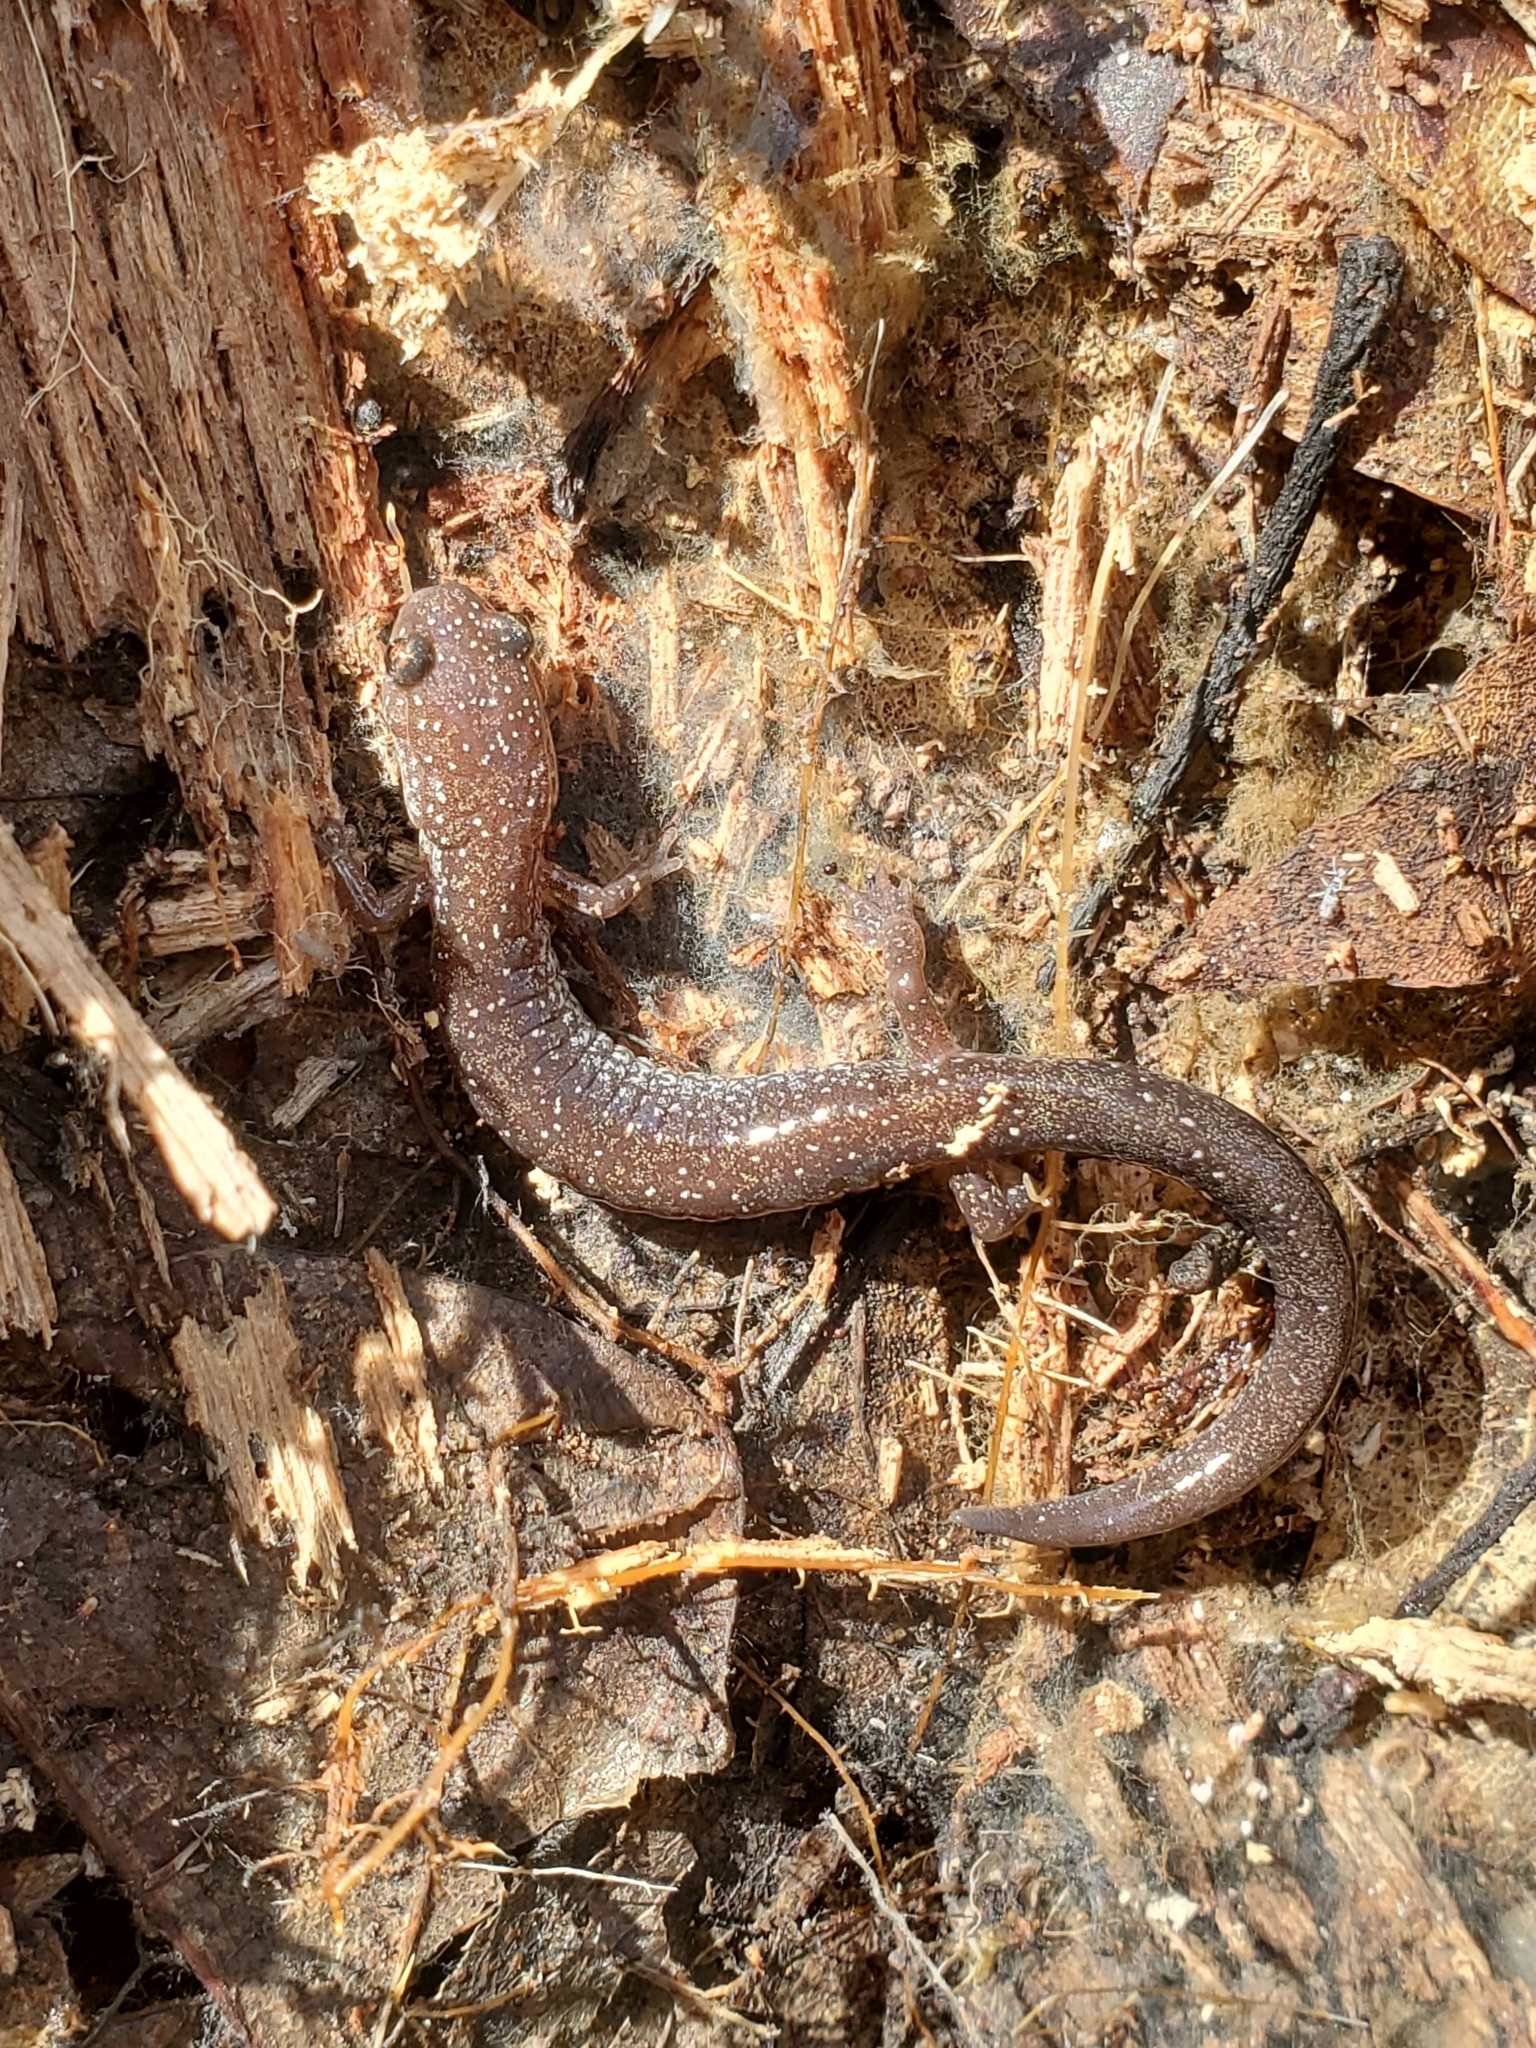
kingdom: Animalia
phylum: Chordata
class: Amphibia
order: Caudata
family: Plethodontidae
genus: Plethodon
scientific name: Plethodon cinereus
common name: Redback salamander
